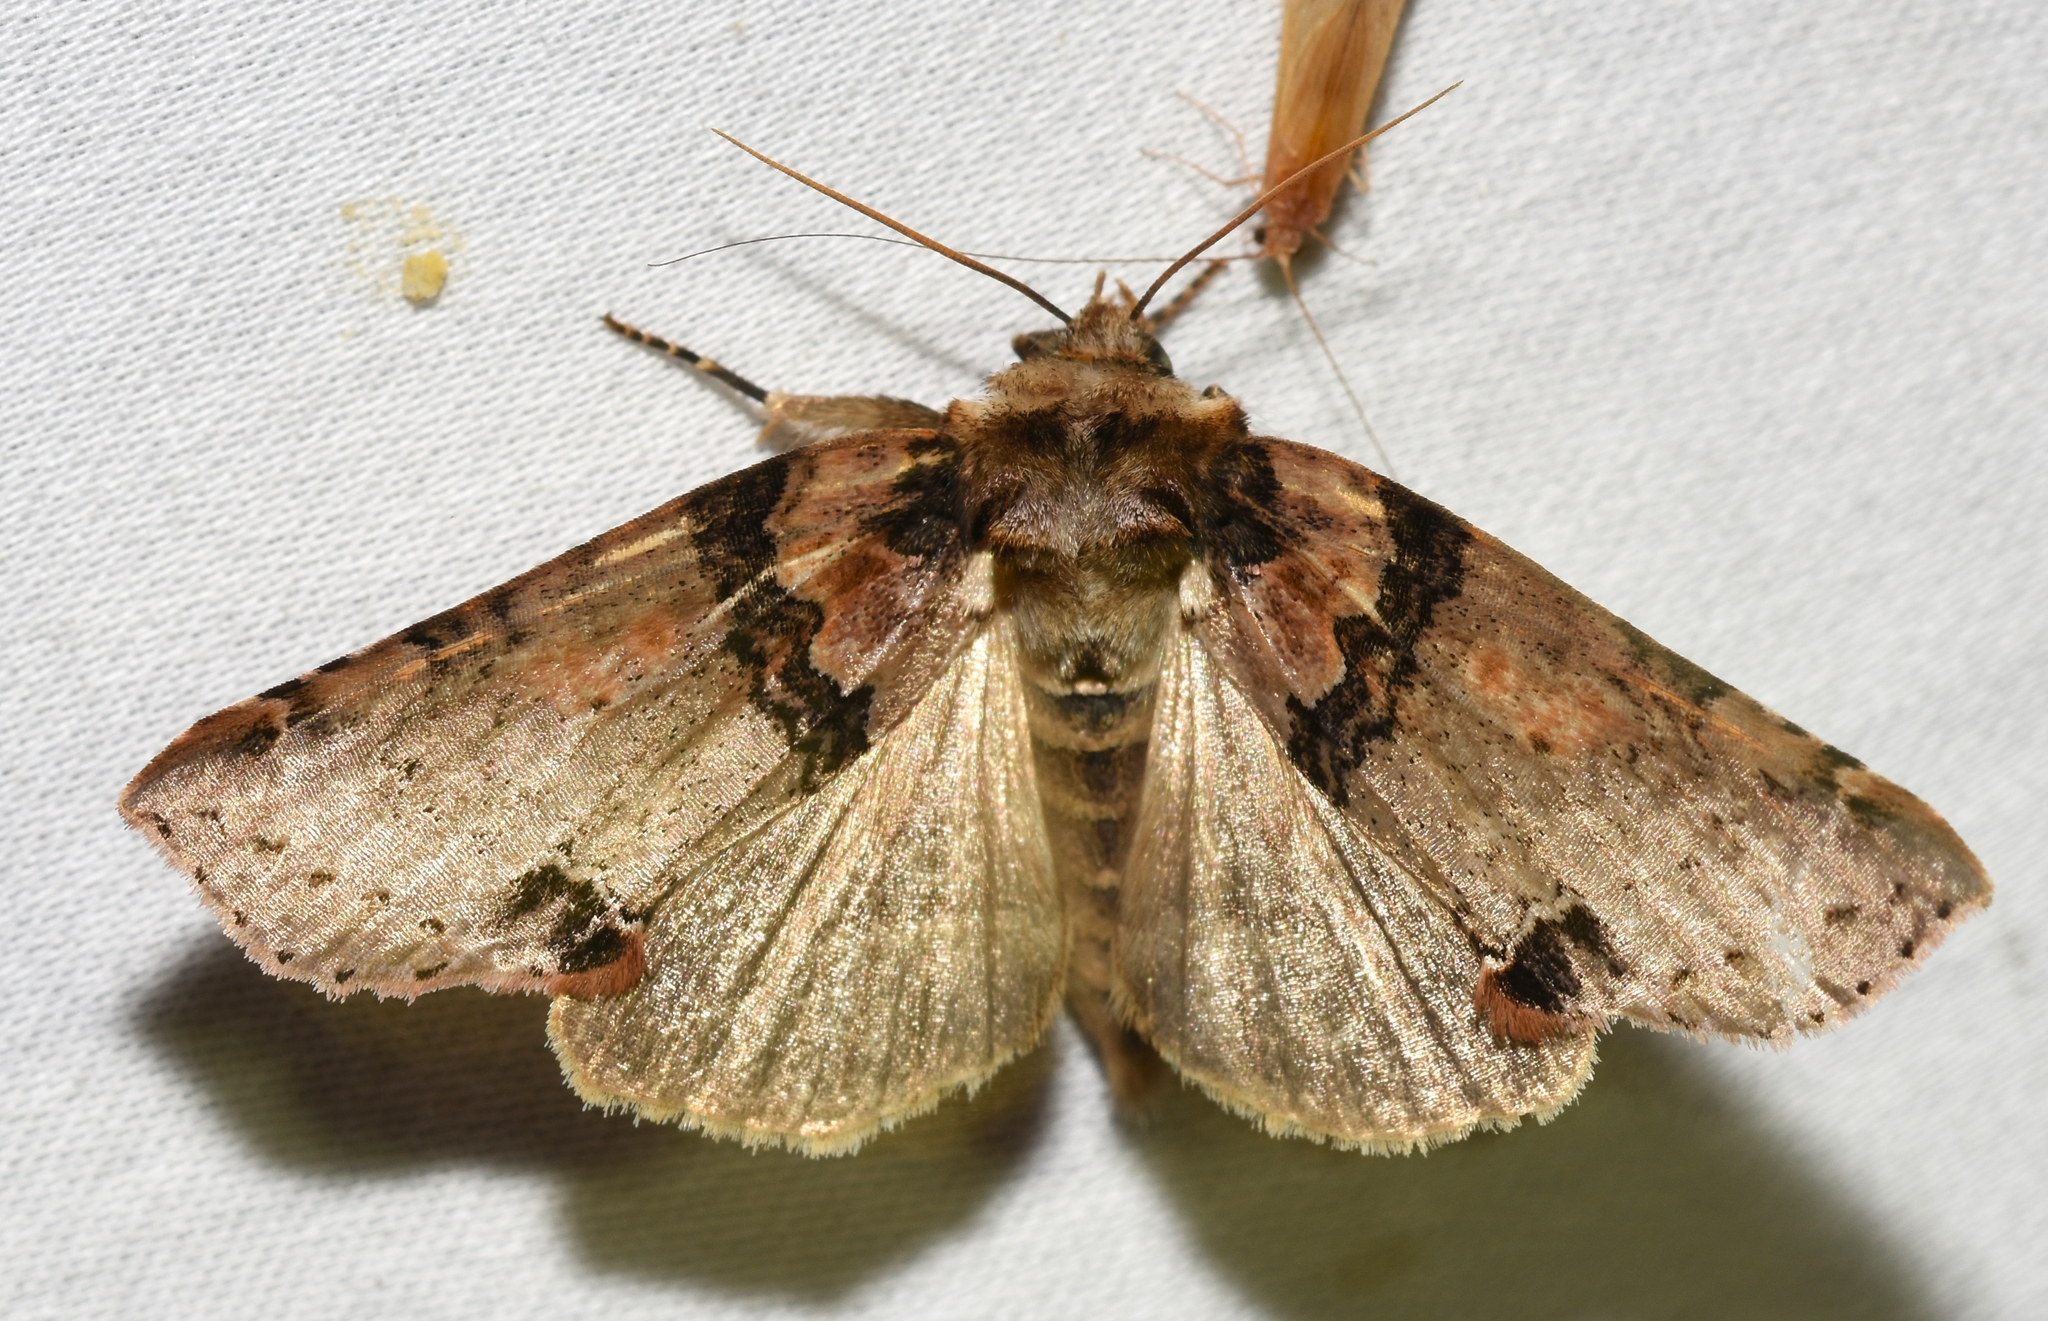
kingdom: Animalia
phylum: Arthropoda
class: Insecta
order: Lepidoptera
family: Drepanidae
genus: Pseudothyatira
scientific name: Pseudothyatira cymatophoroides
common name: Tufted thyatirid moth
